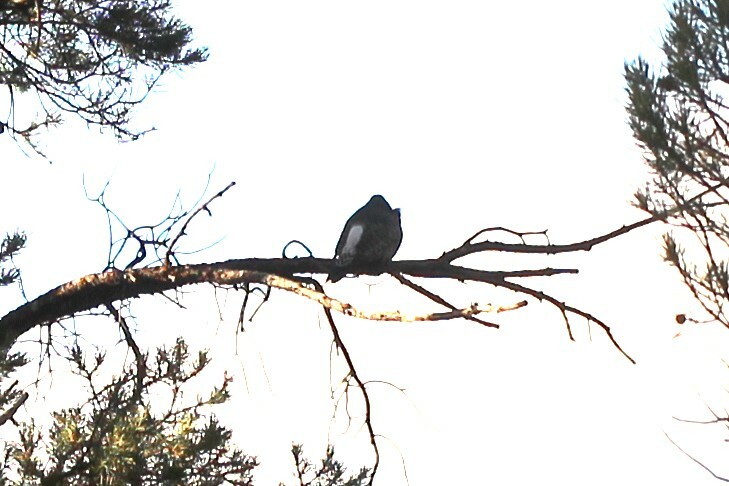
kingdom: Animalia
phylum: Chordata
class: Aves
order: Piciformes
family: Picidae
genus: Colaptes
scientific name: Colaptes auratus
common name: Northern flicker
